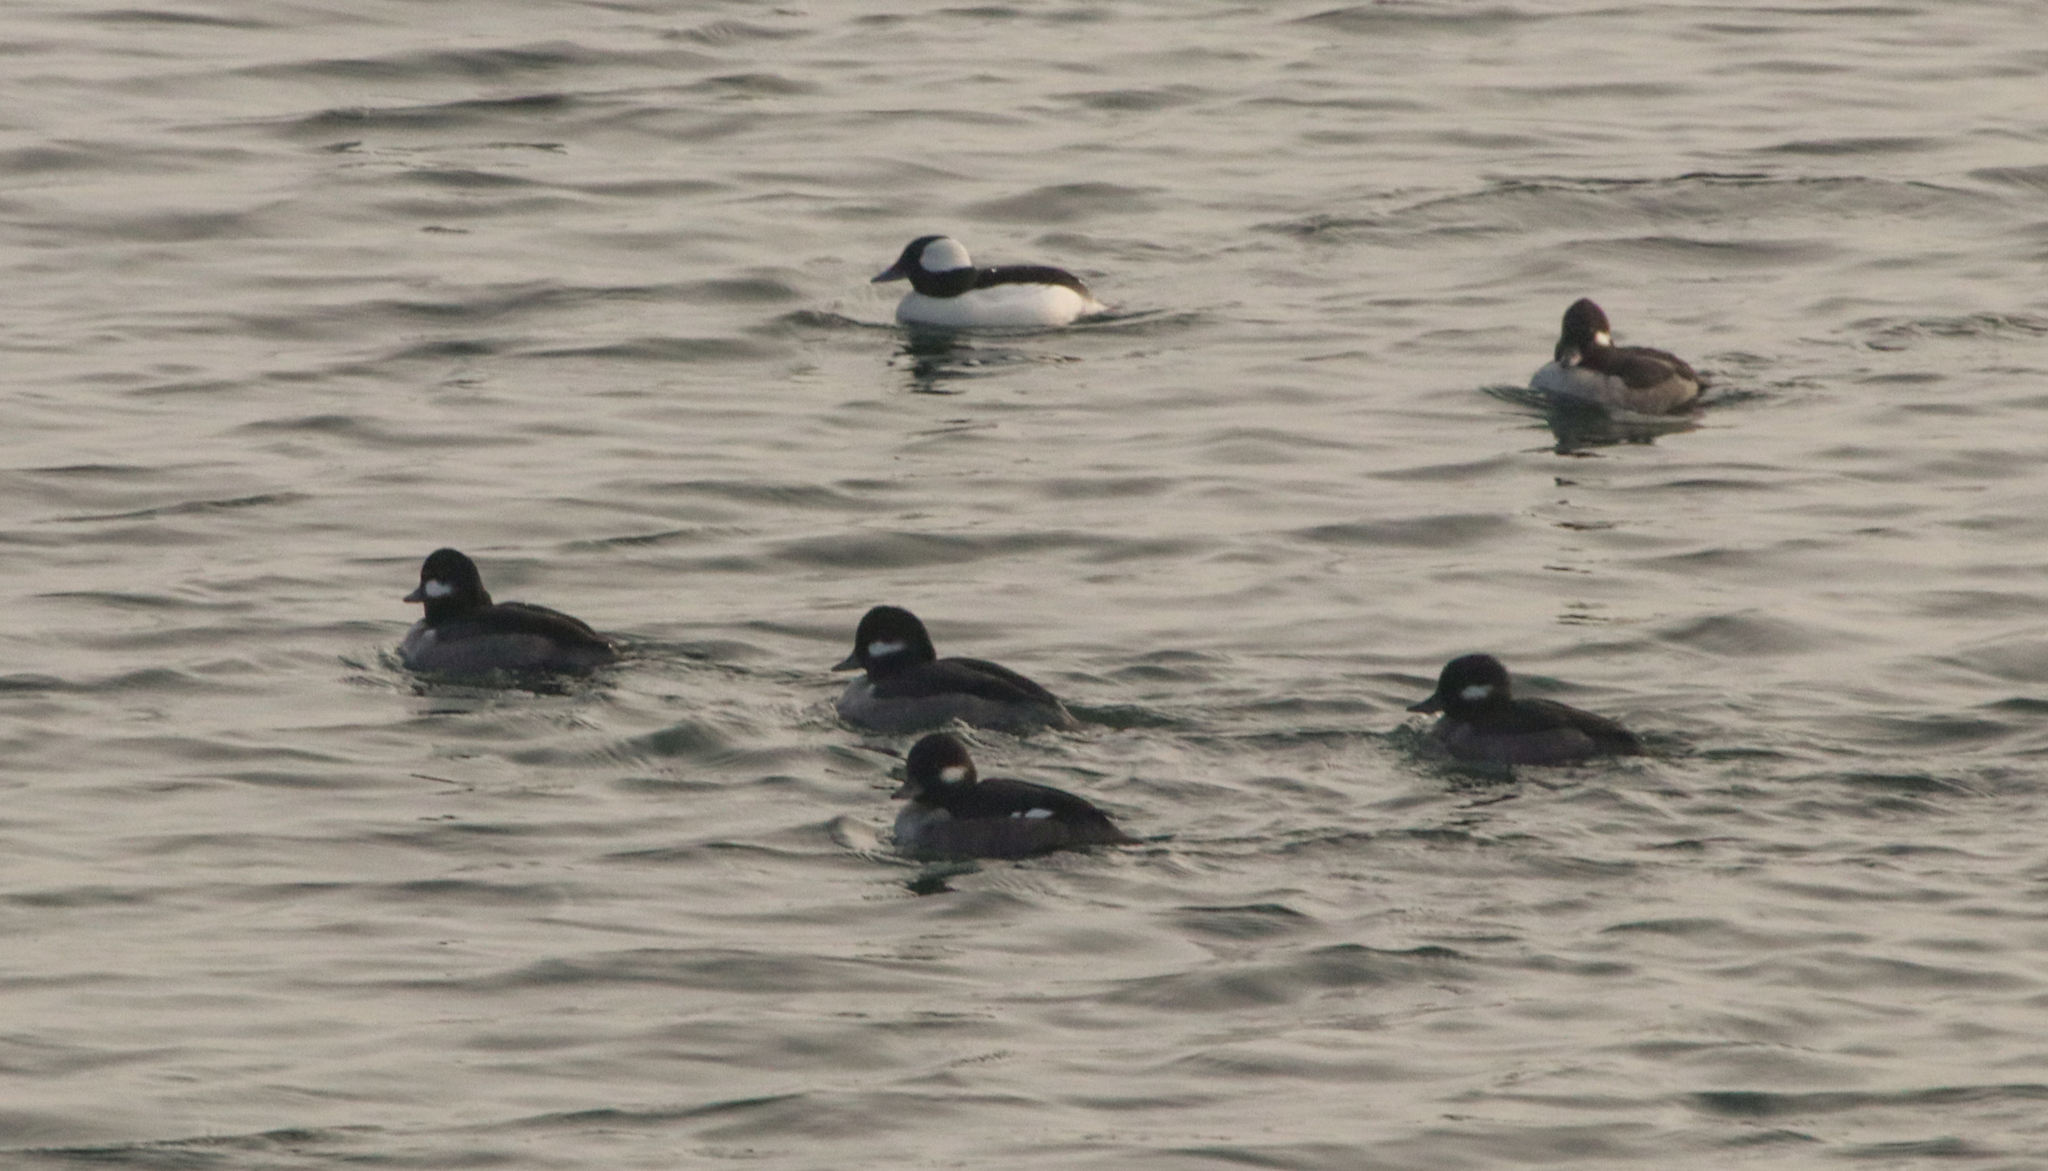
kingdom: Animalia
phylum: Chordata
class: Aves
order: Anseriformes
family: Anatidae
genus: Bucephala
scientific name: Bucephala albeola
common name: Bufflehead
